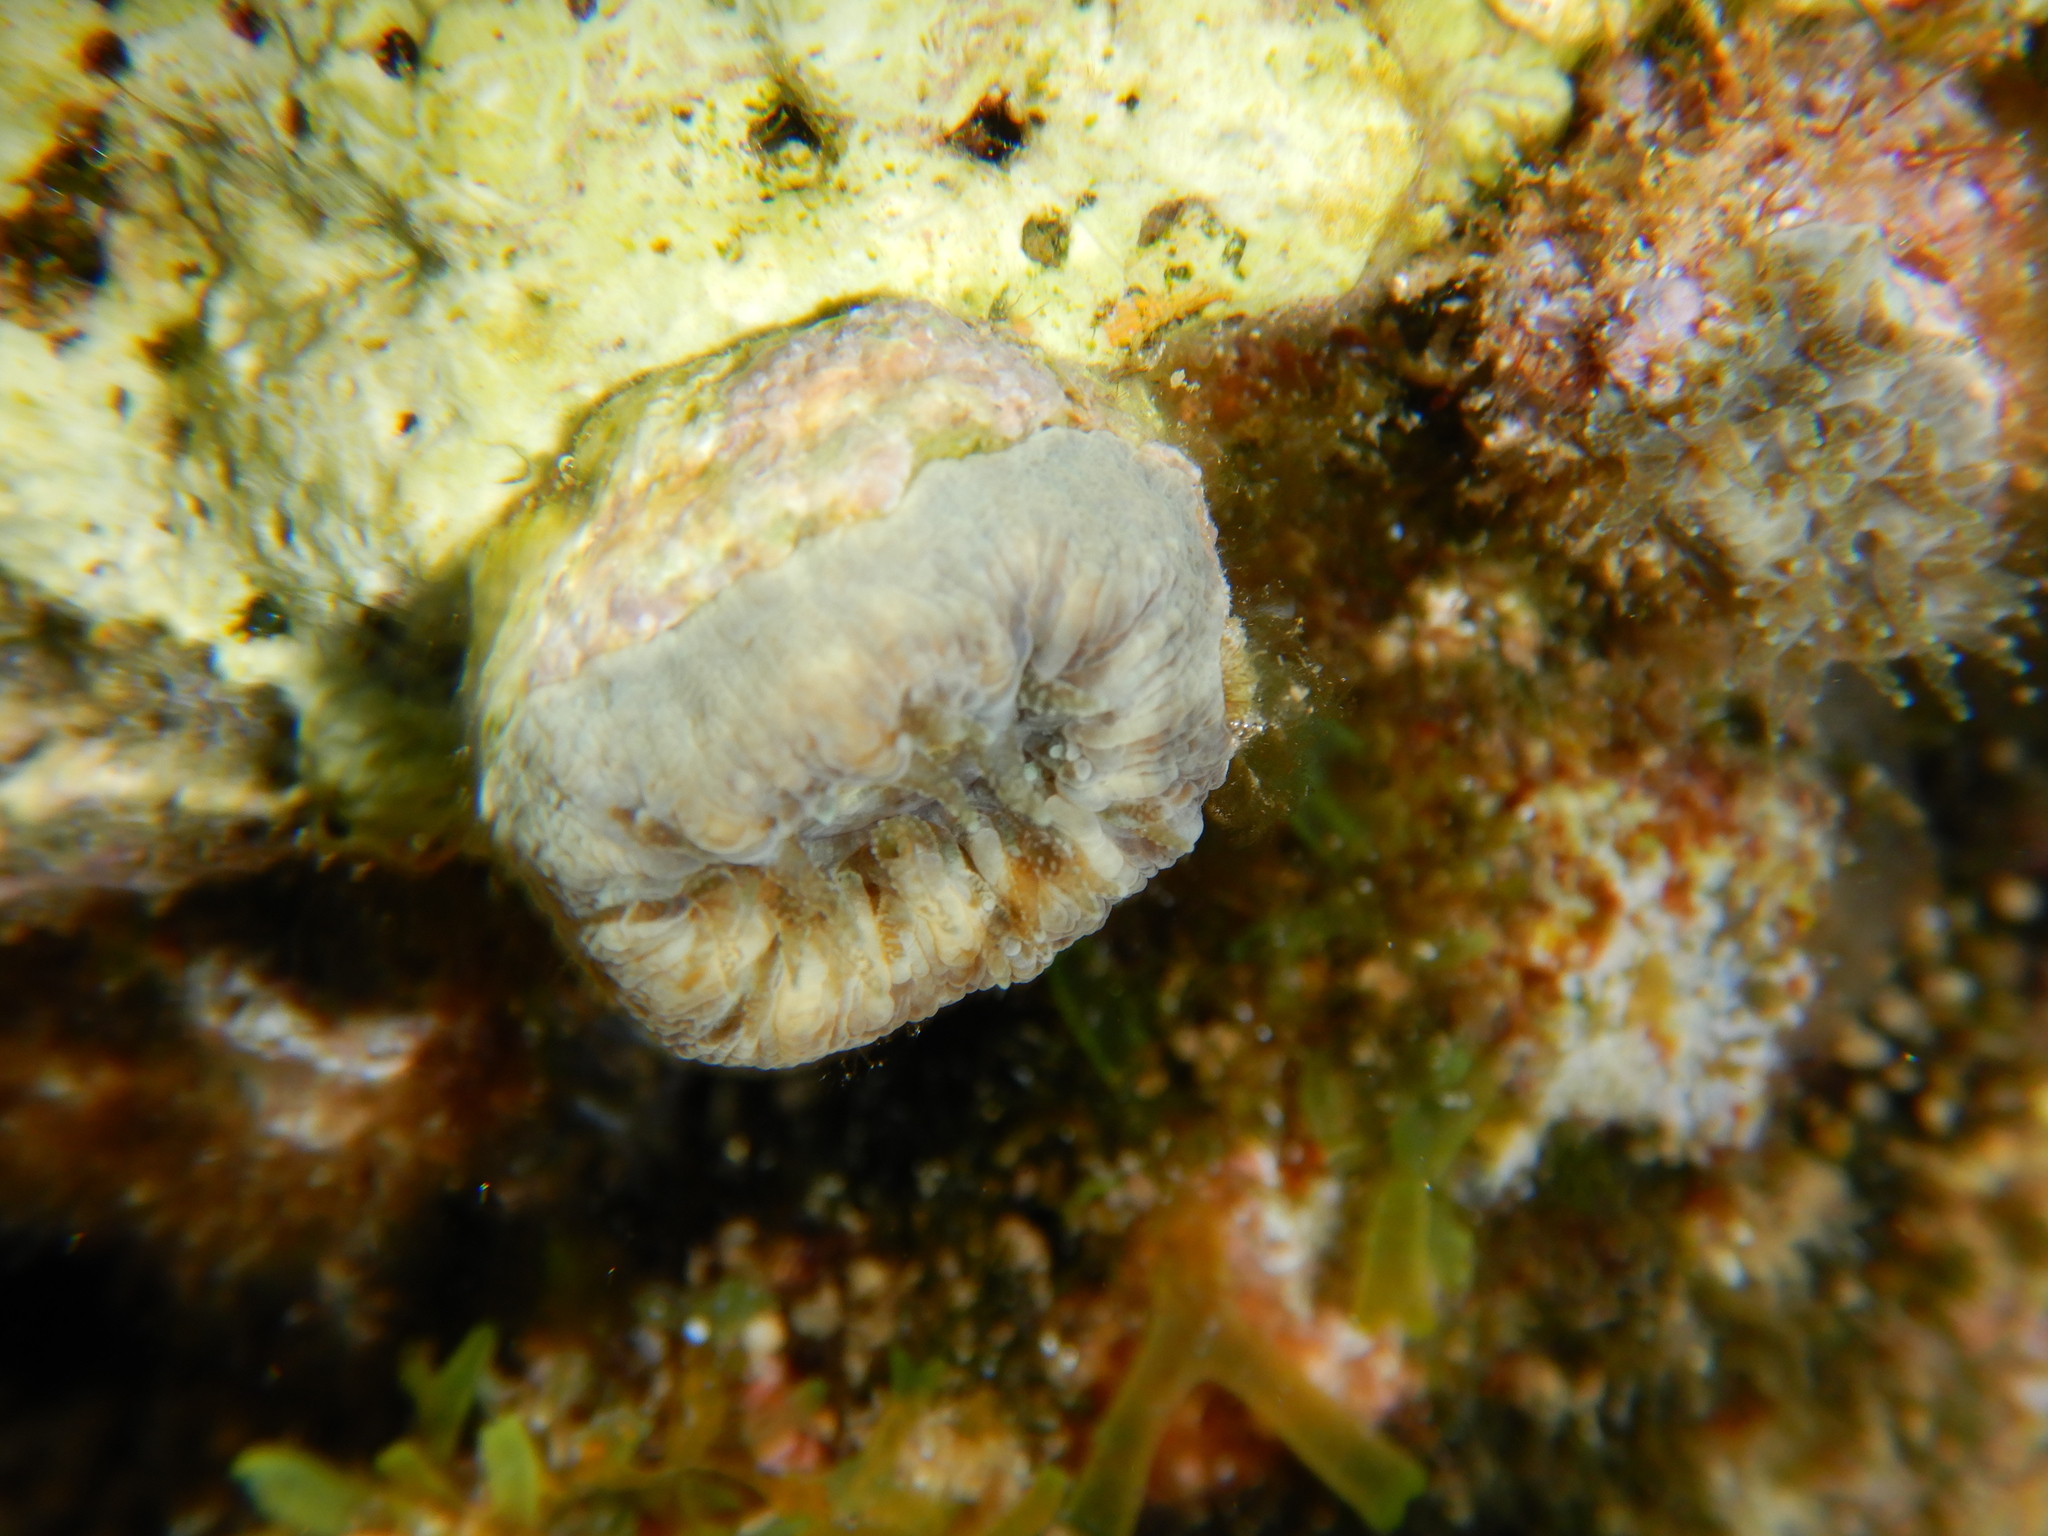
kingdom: Animalia
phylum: Cnidaria
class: Anthozoa
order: Scleractinia
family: Dendrophylliidae
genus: Balanophyllia
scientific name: Balanophyllia europaea
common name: Scarlet coral
